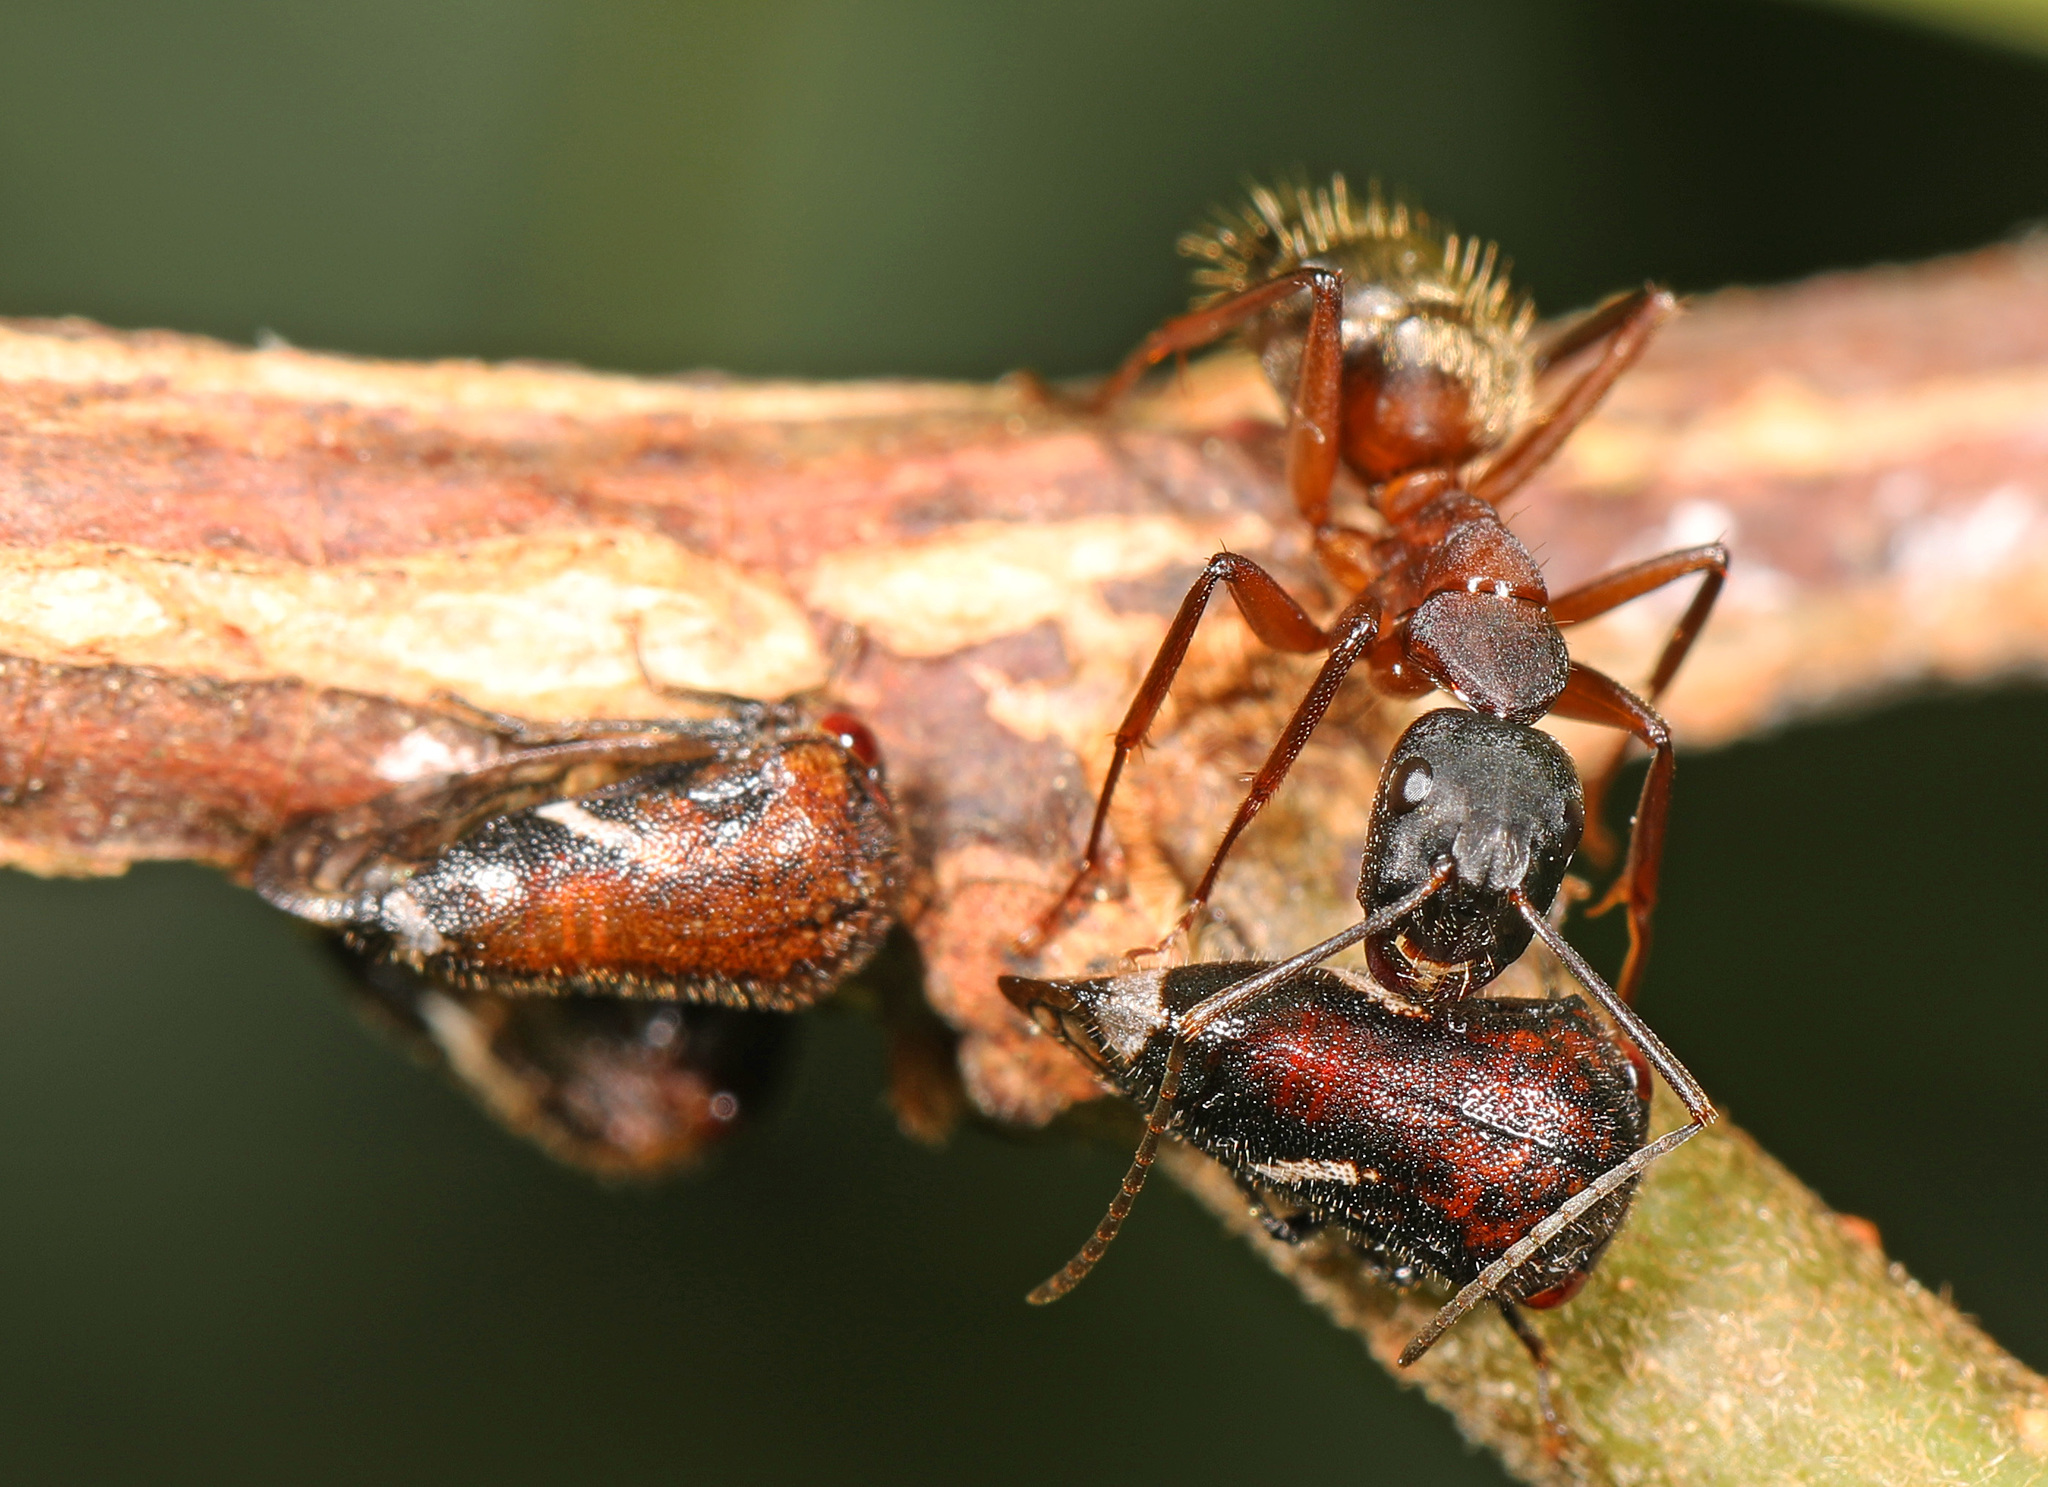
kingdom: Animalia
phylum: Arthropoda
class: Insecta
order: Hemiptera
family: Membracidae
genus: Vanduzea
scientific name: Vanduzea arquata
